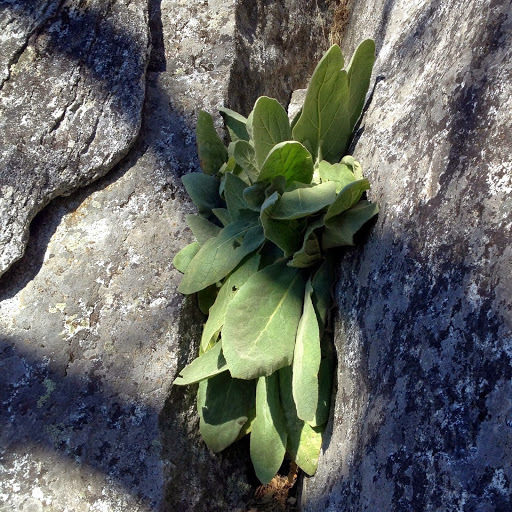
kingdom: Plantae
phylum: Tracheophyta
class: Magnoliopsida
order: Lamiales
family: Scrophulariaceae
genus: Verbascum
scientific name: Verbascum thapsus
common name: Common mullein
